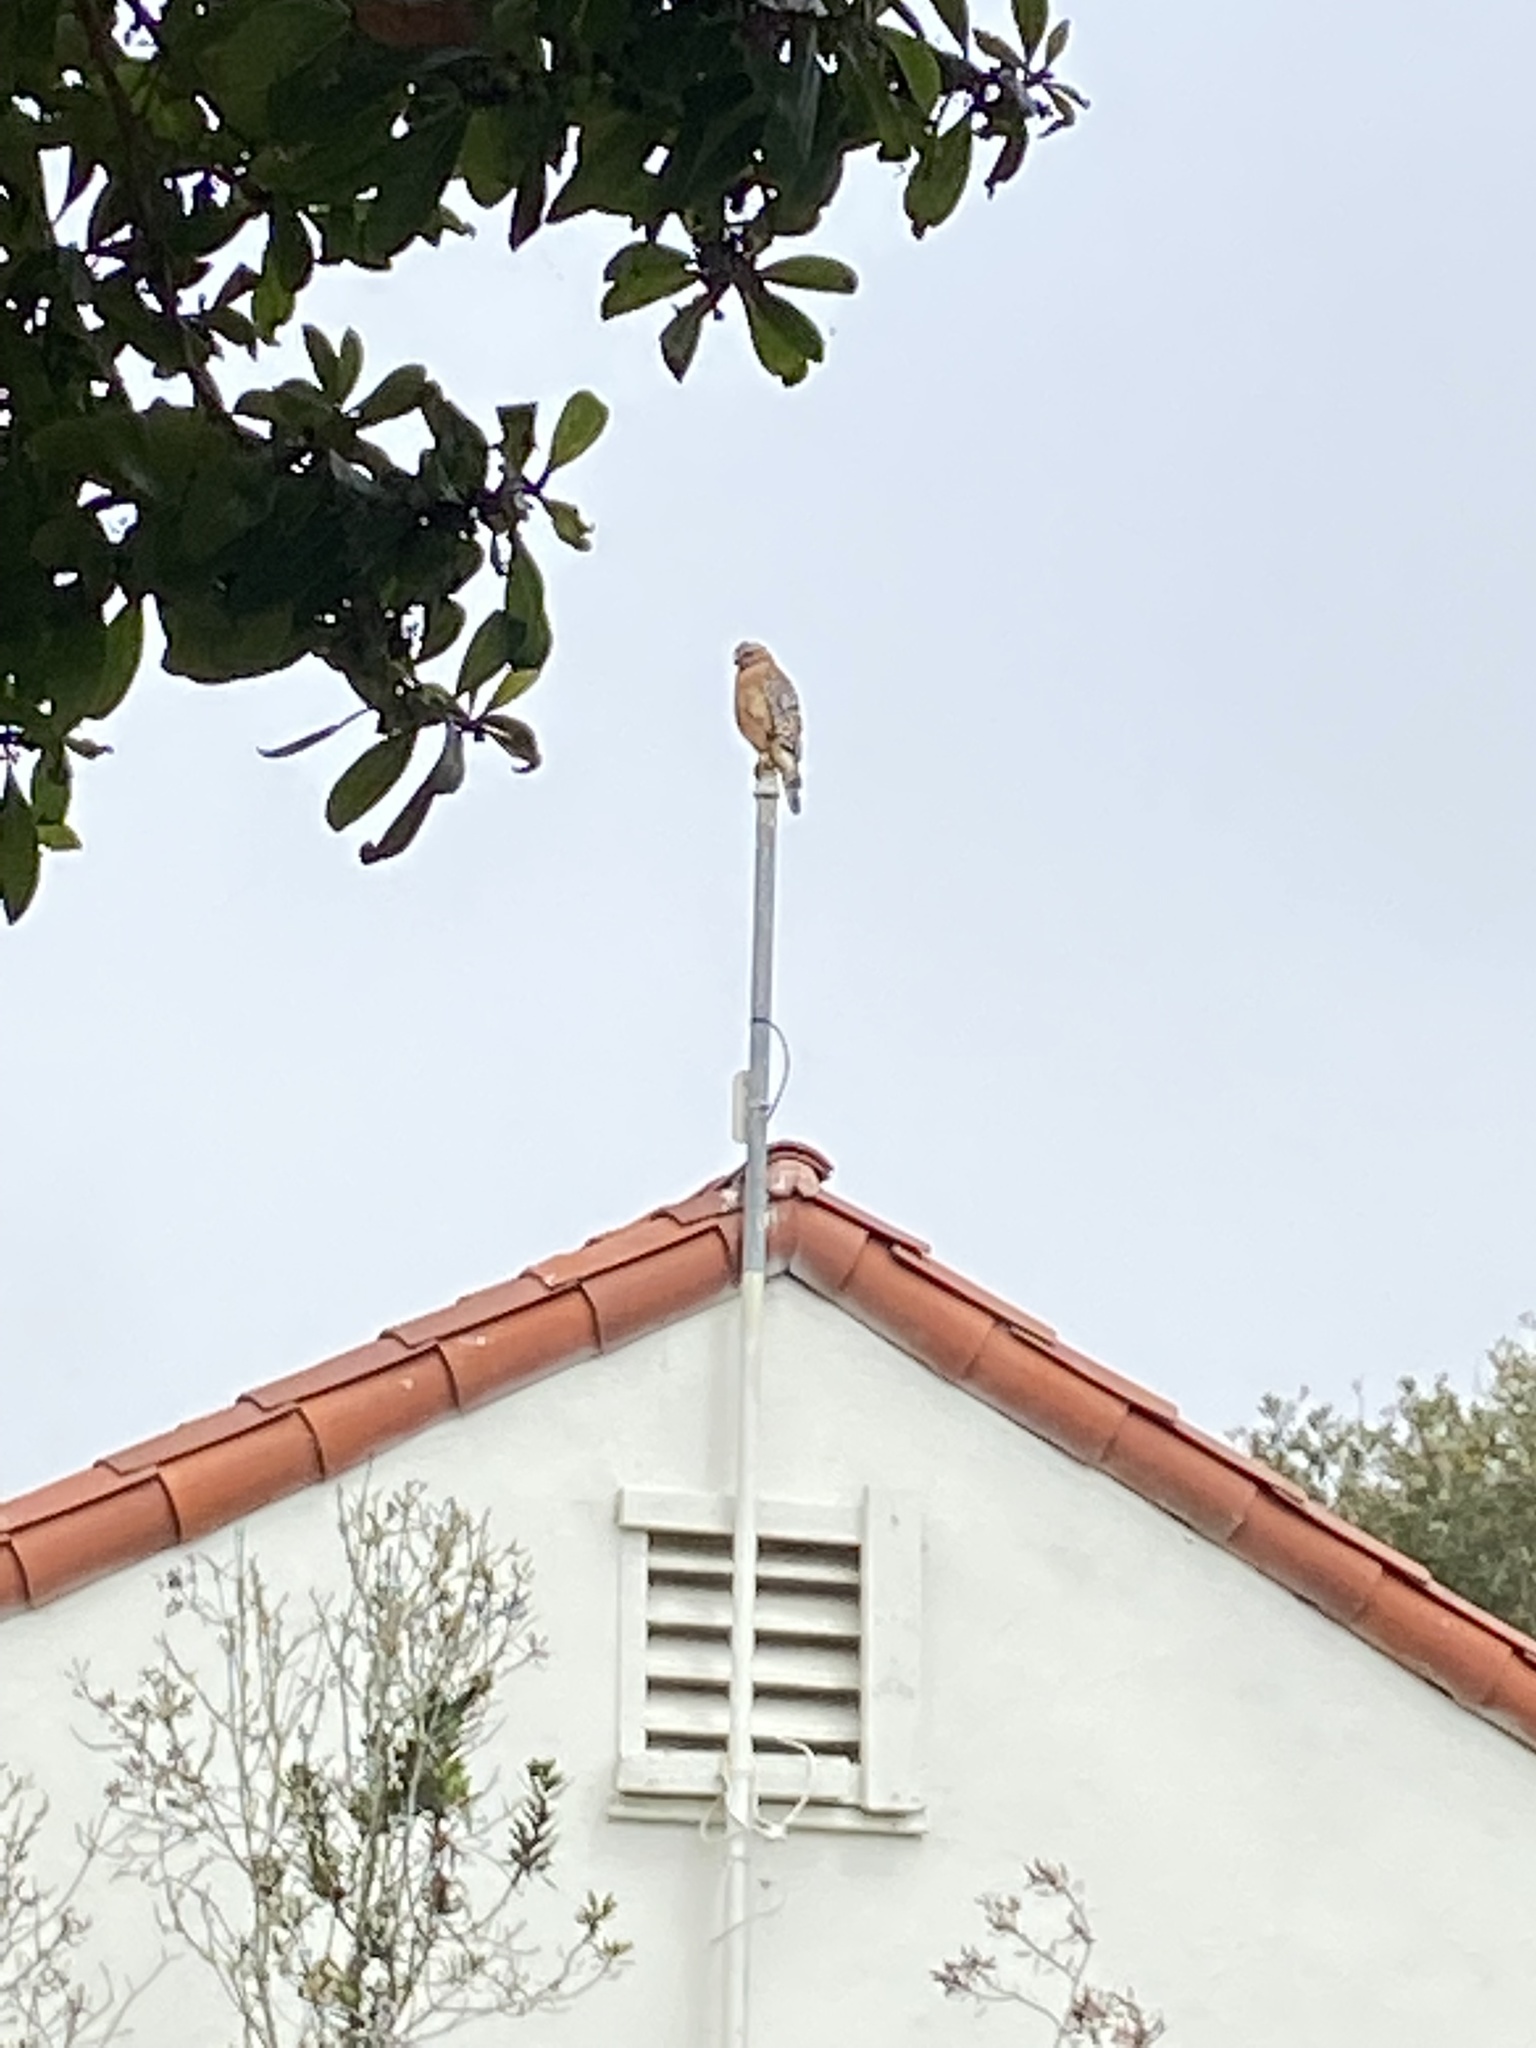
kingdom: Animalia
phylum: Chordata
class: Aves
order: Accipitriformes
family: Accipitridae
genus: Buteo
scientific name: Buteo lineatus
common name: Red-shouldered hawk
